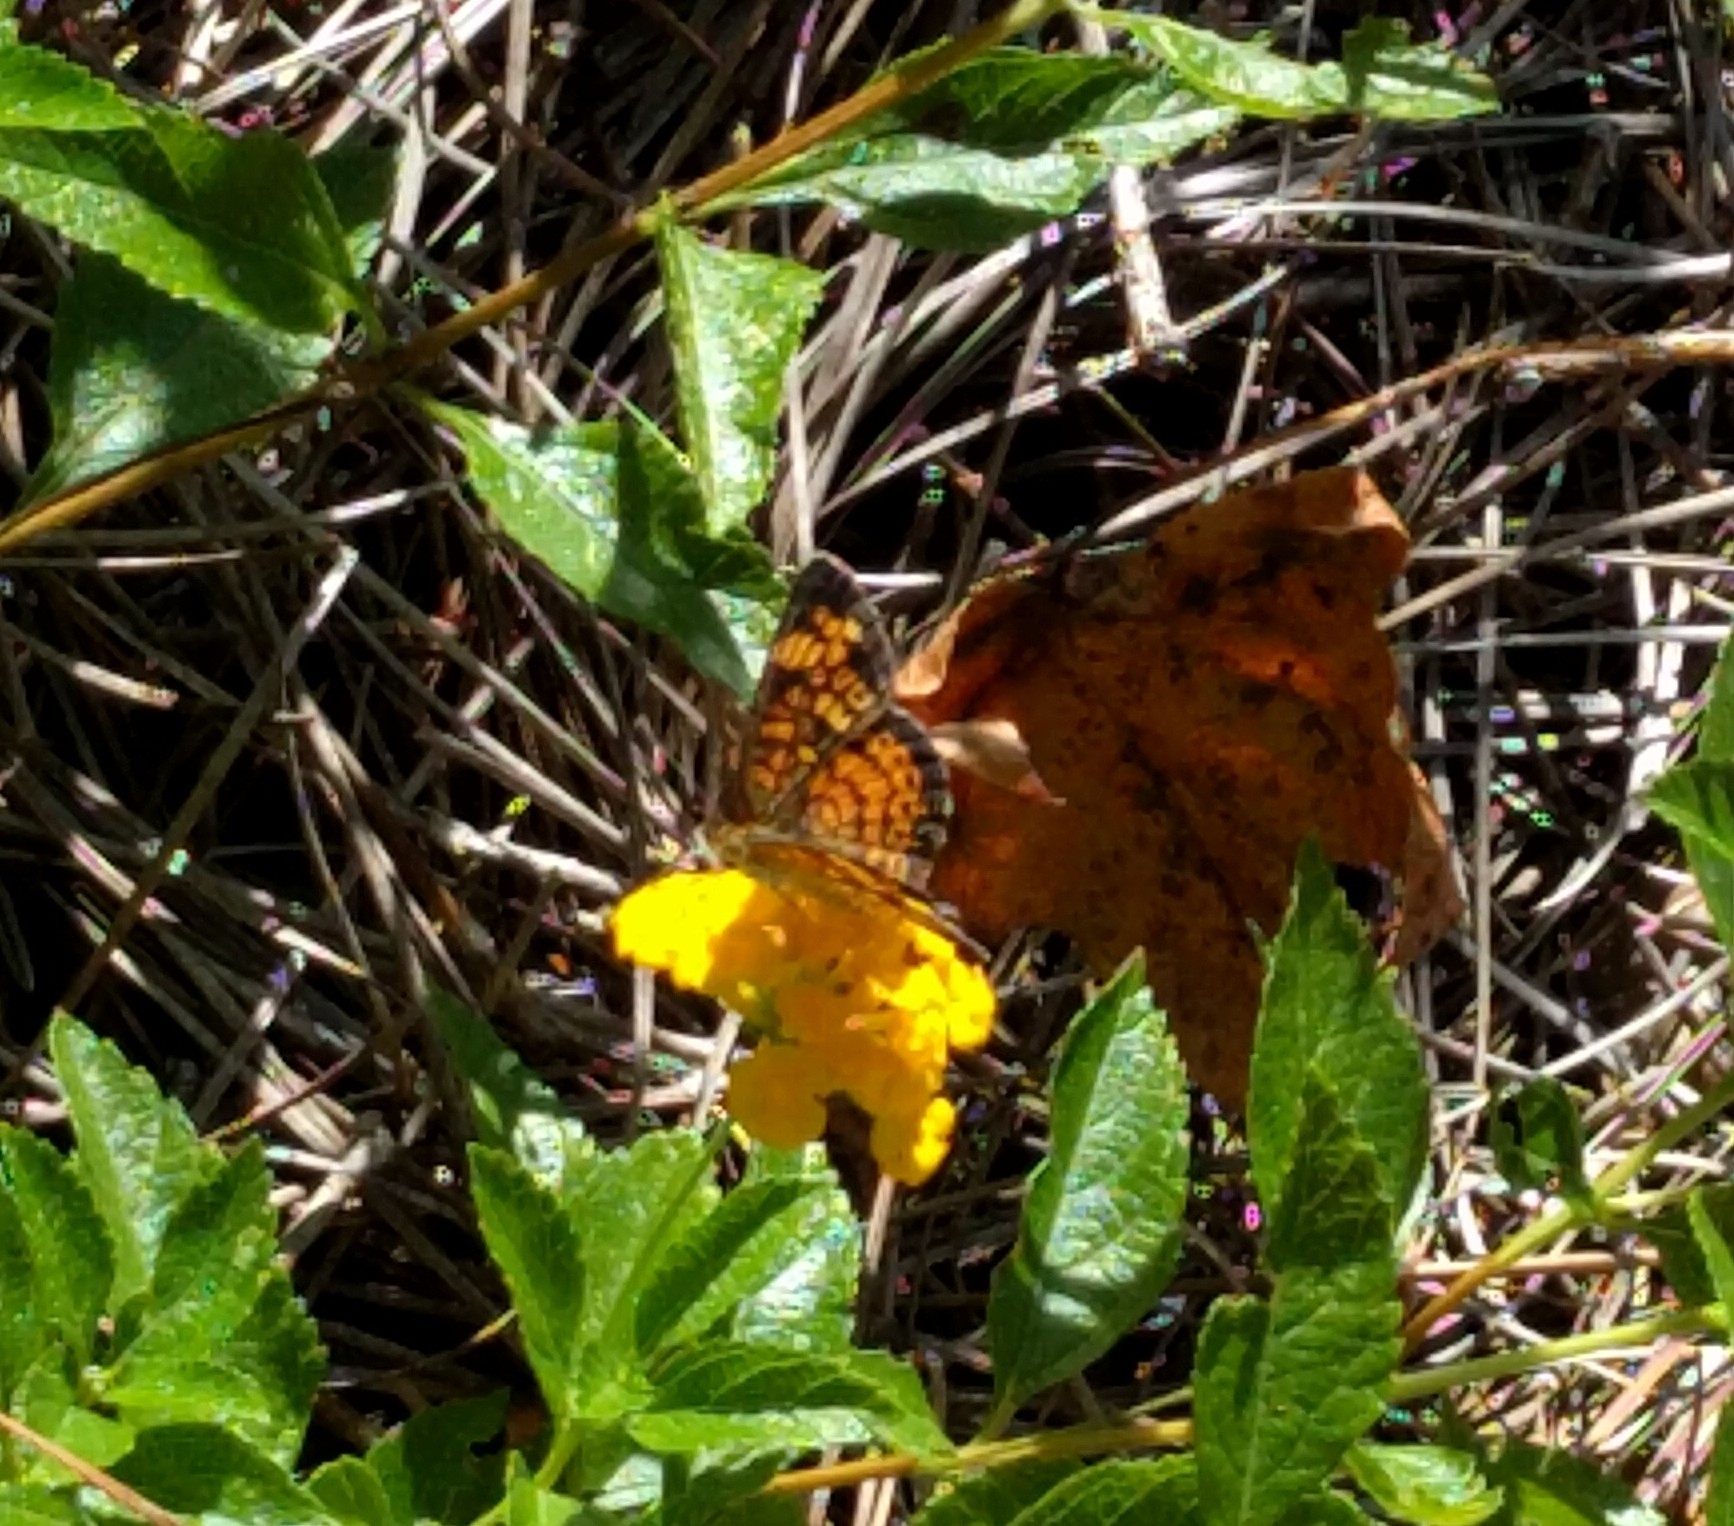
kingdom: Animalia
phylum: Arthropoda
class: Insecta
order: Lepidoptera
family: Nymphalidae
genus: Phyciodes
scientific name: Phyciodes tharos
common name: Pearl crescent
